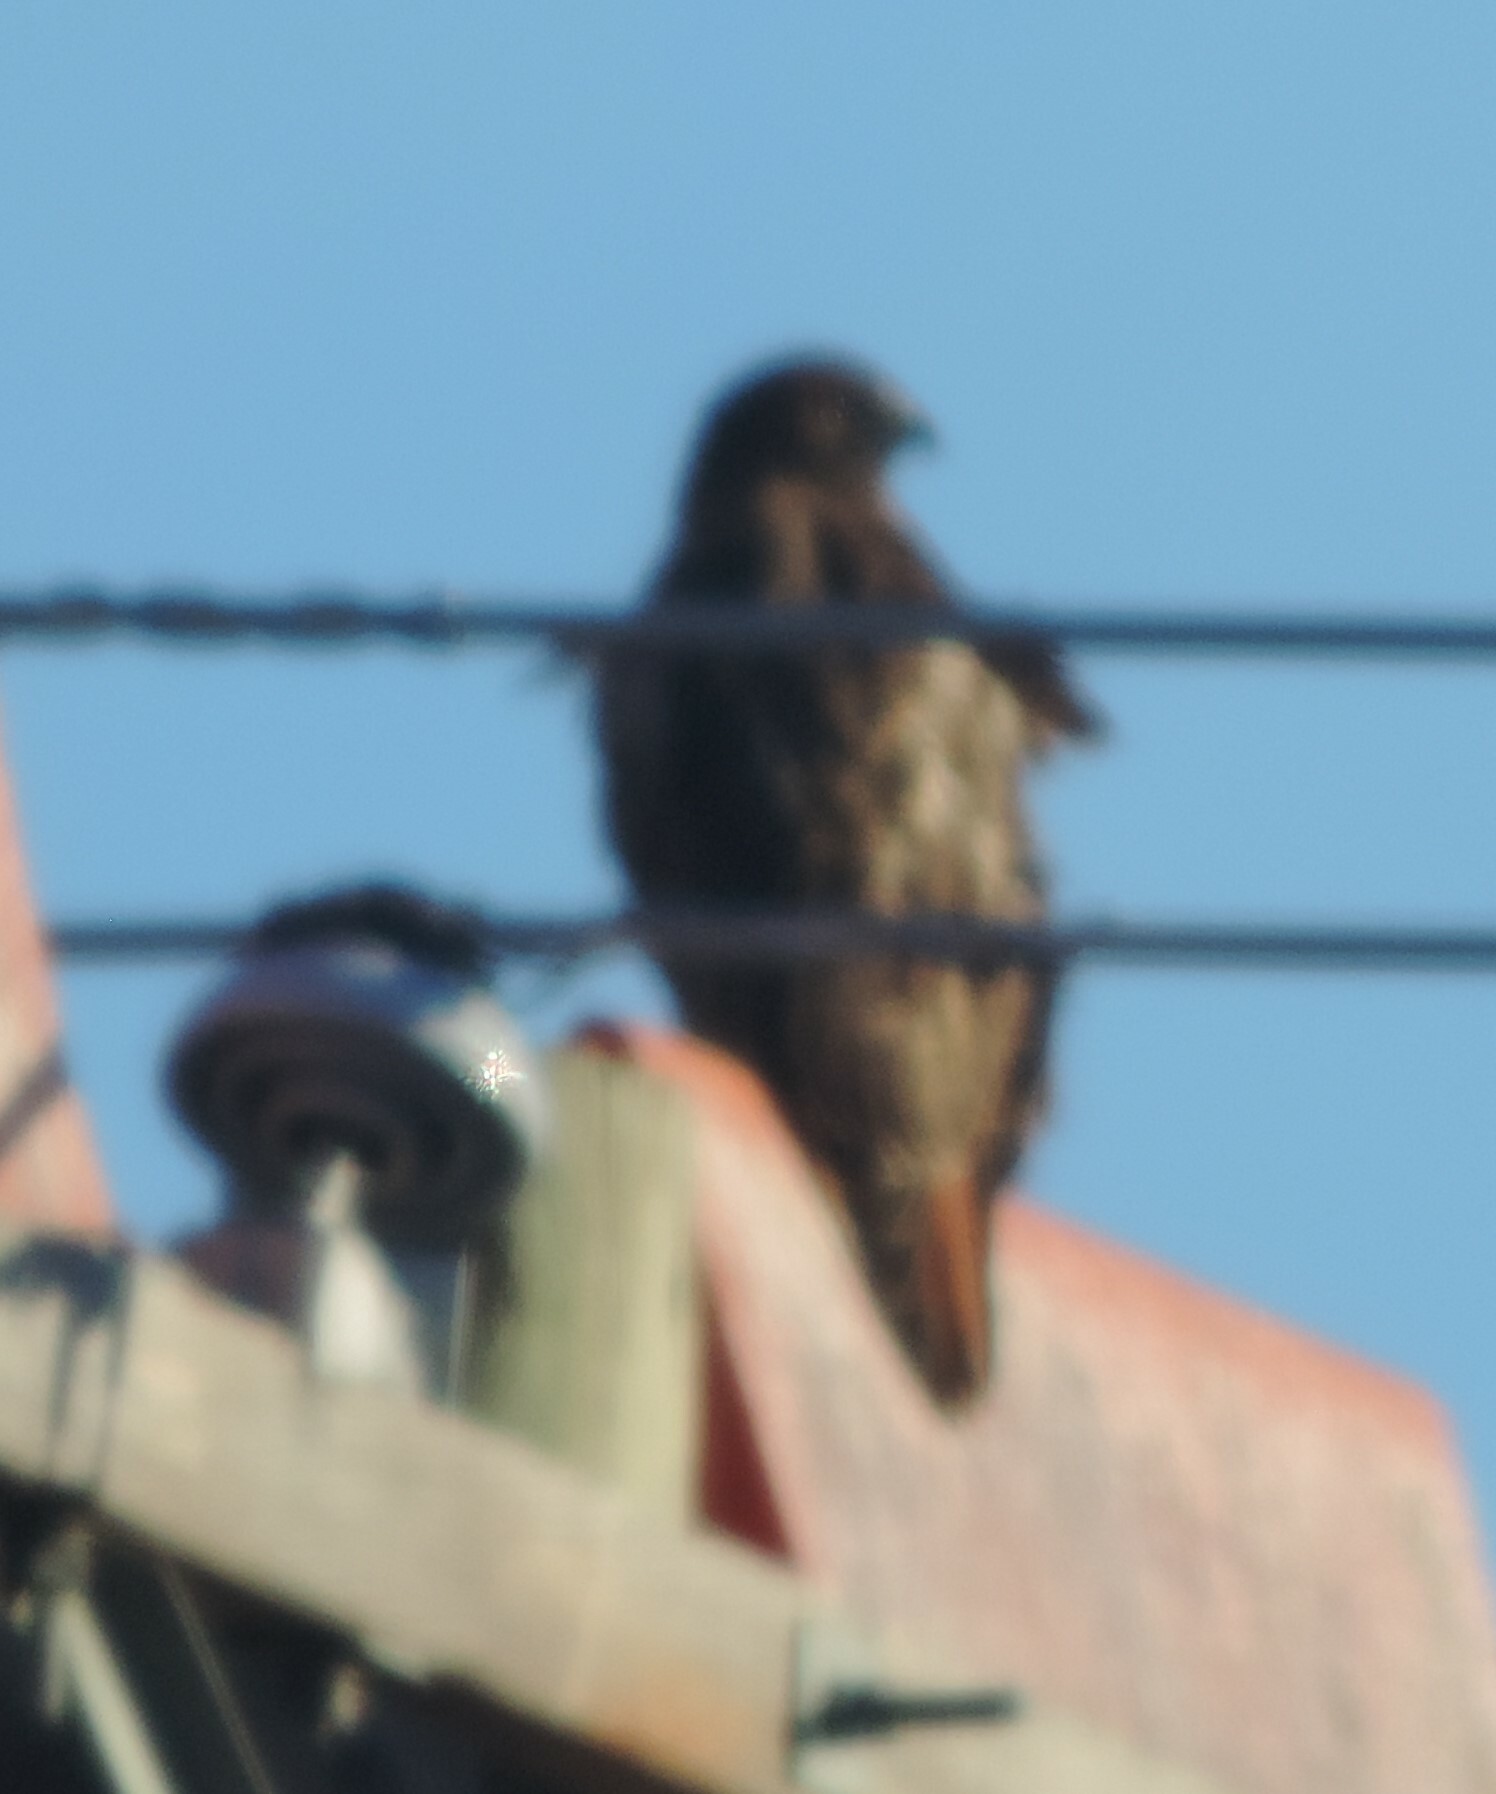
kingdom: Animalia
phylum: Chordata
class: Aves
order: Accipitriformes
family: Accipitridae
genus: Buteo
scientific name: Buteo jamaicensis
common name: Red-tailed hawk
